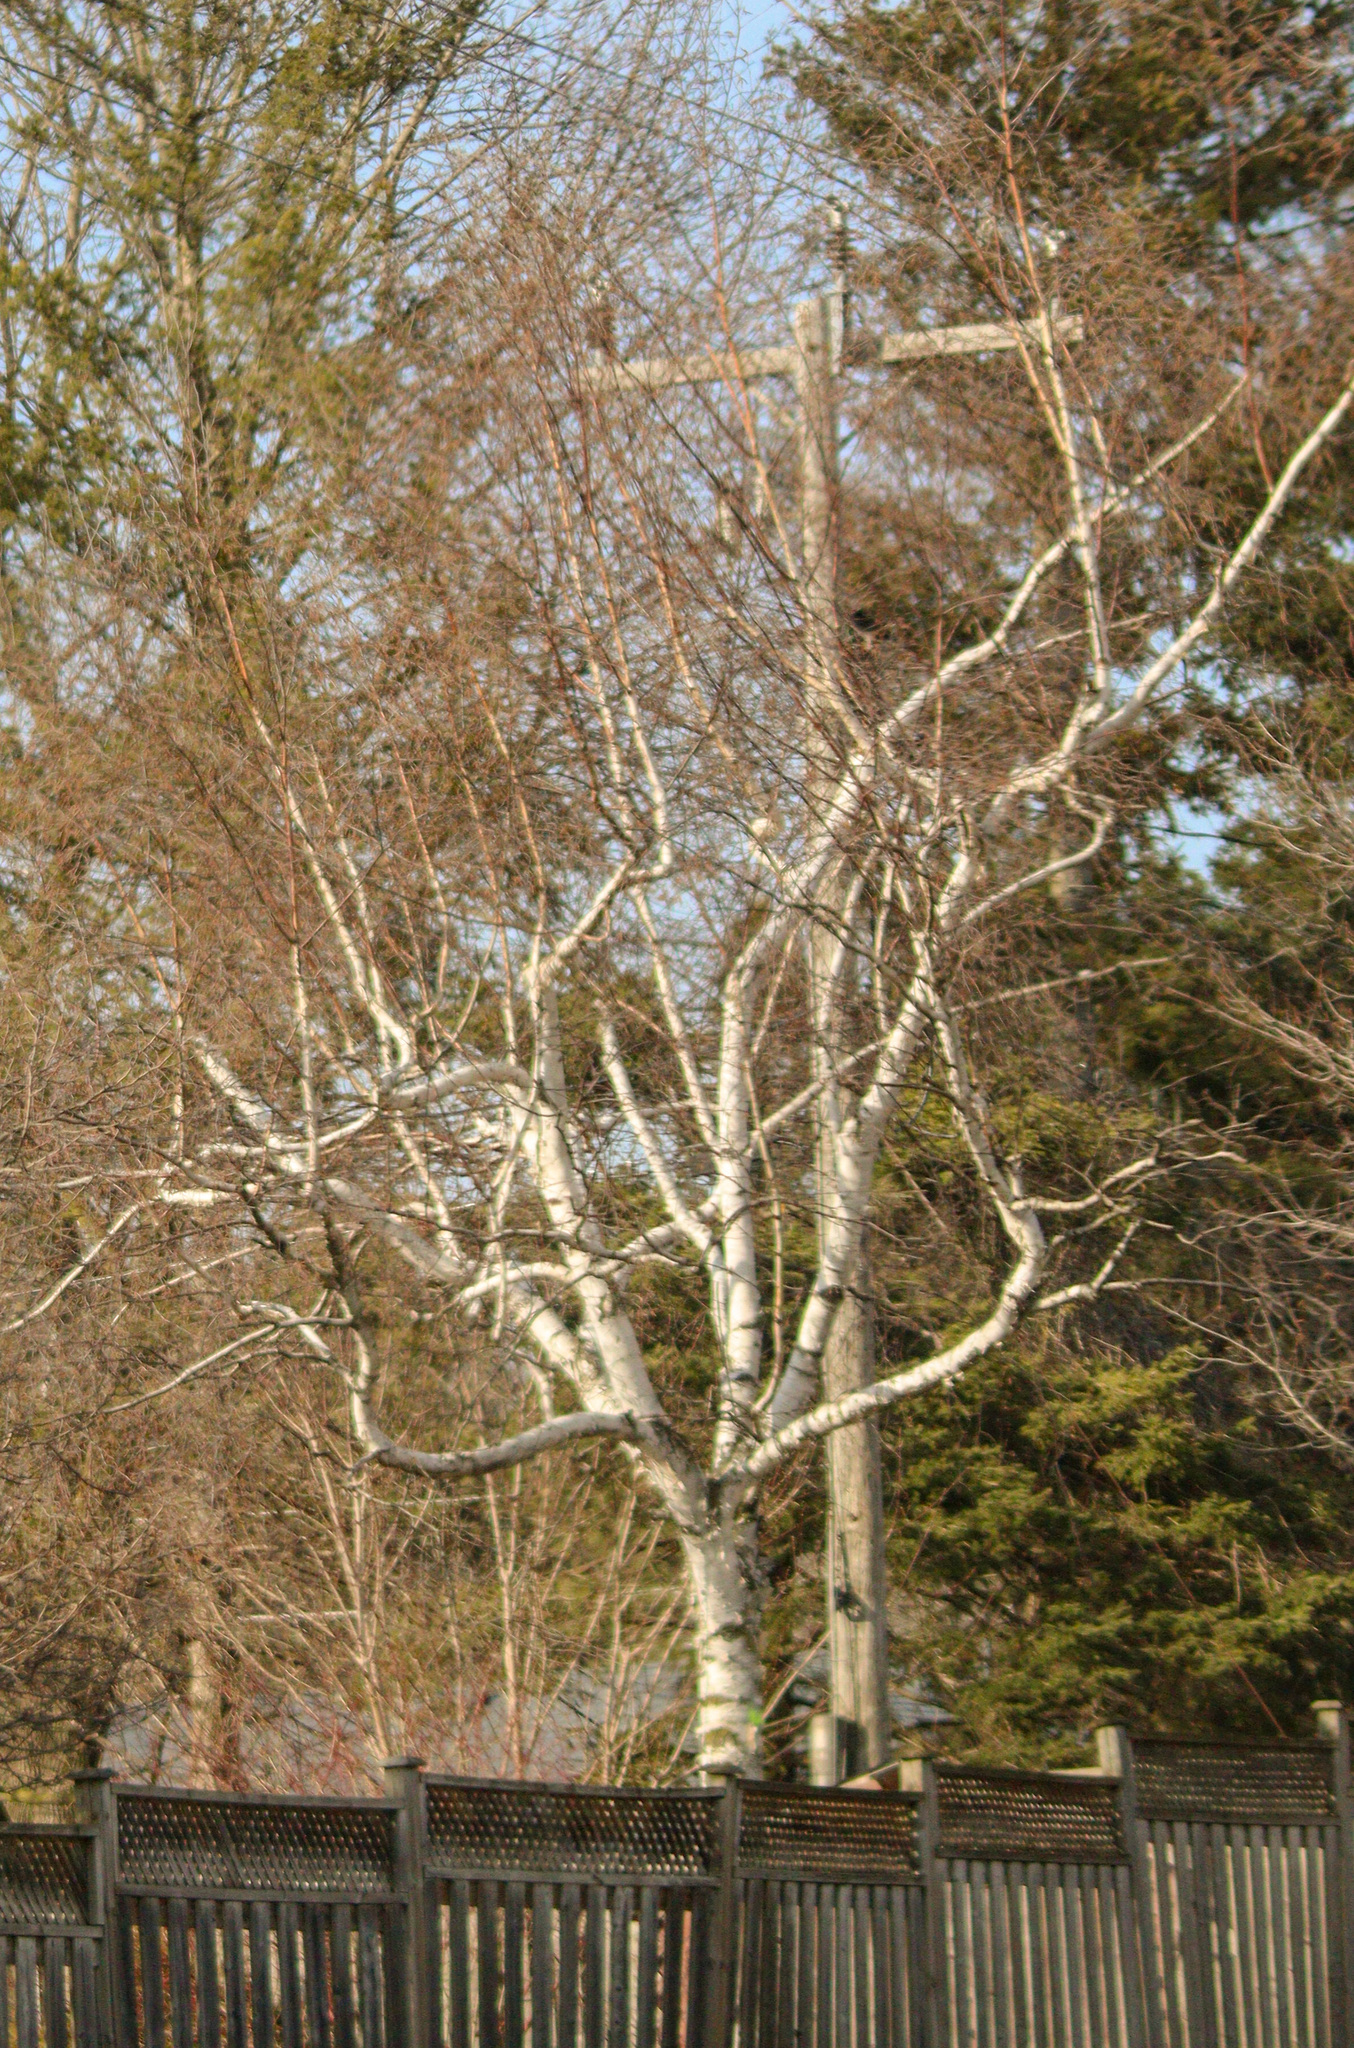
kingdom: Plantae
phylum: Tracheophyta
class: Magnoliopsida
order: Fagales
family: Betulaceae
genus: Betula
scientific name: Betula papyrifera
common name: Paper birch
